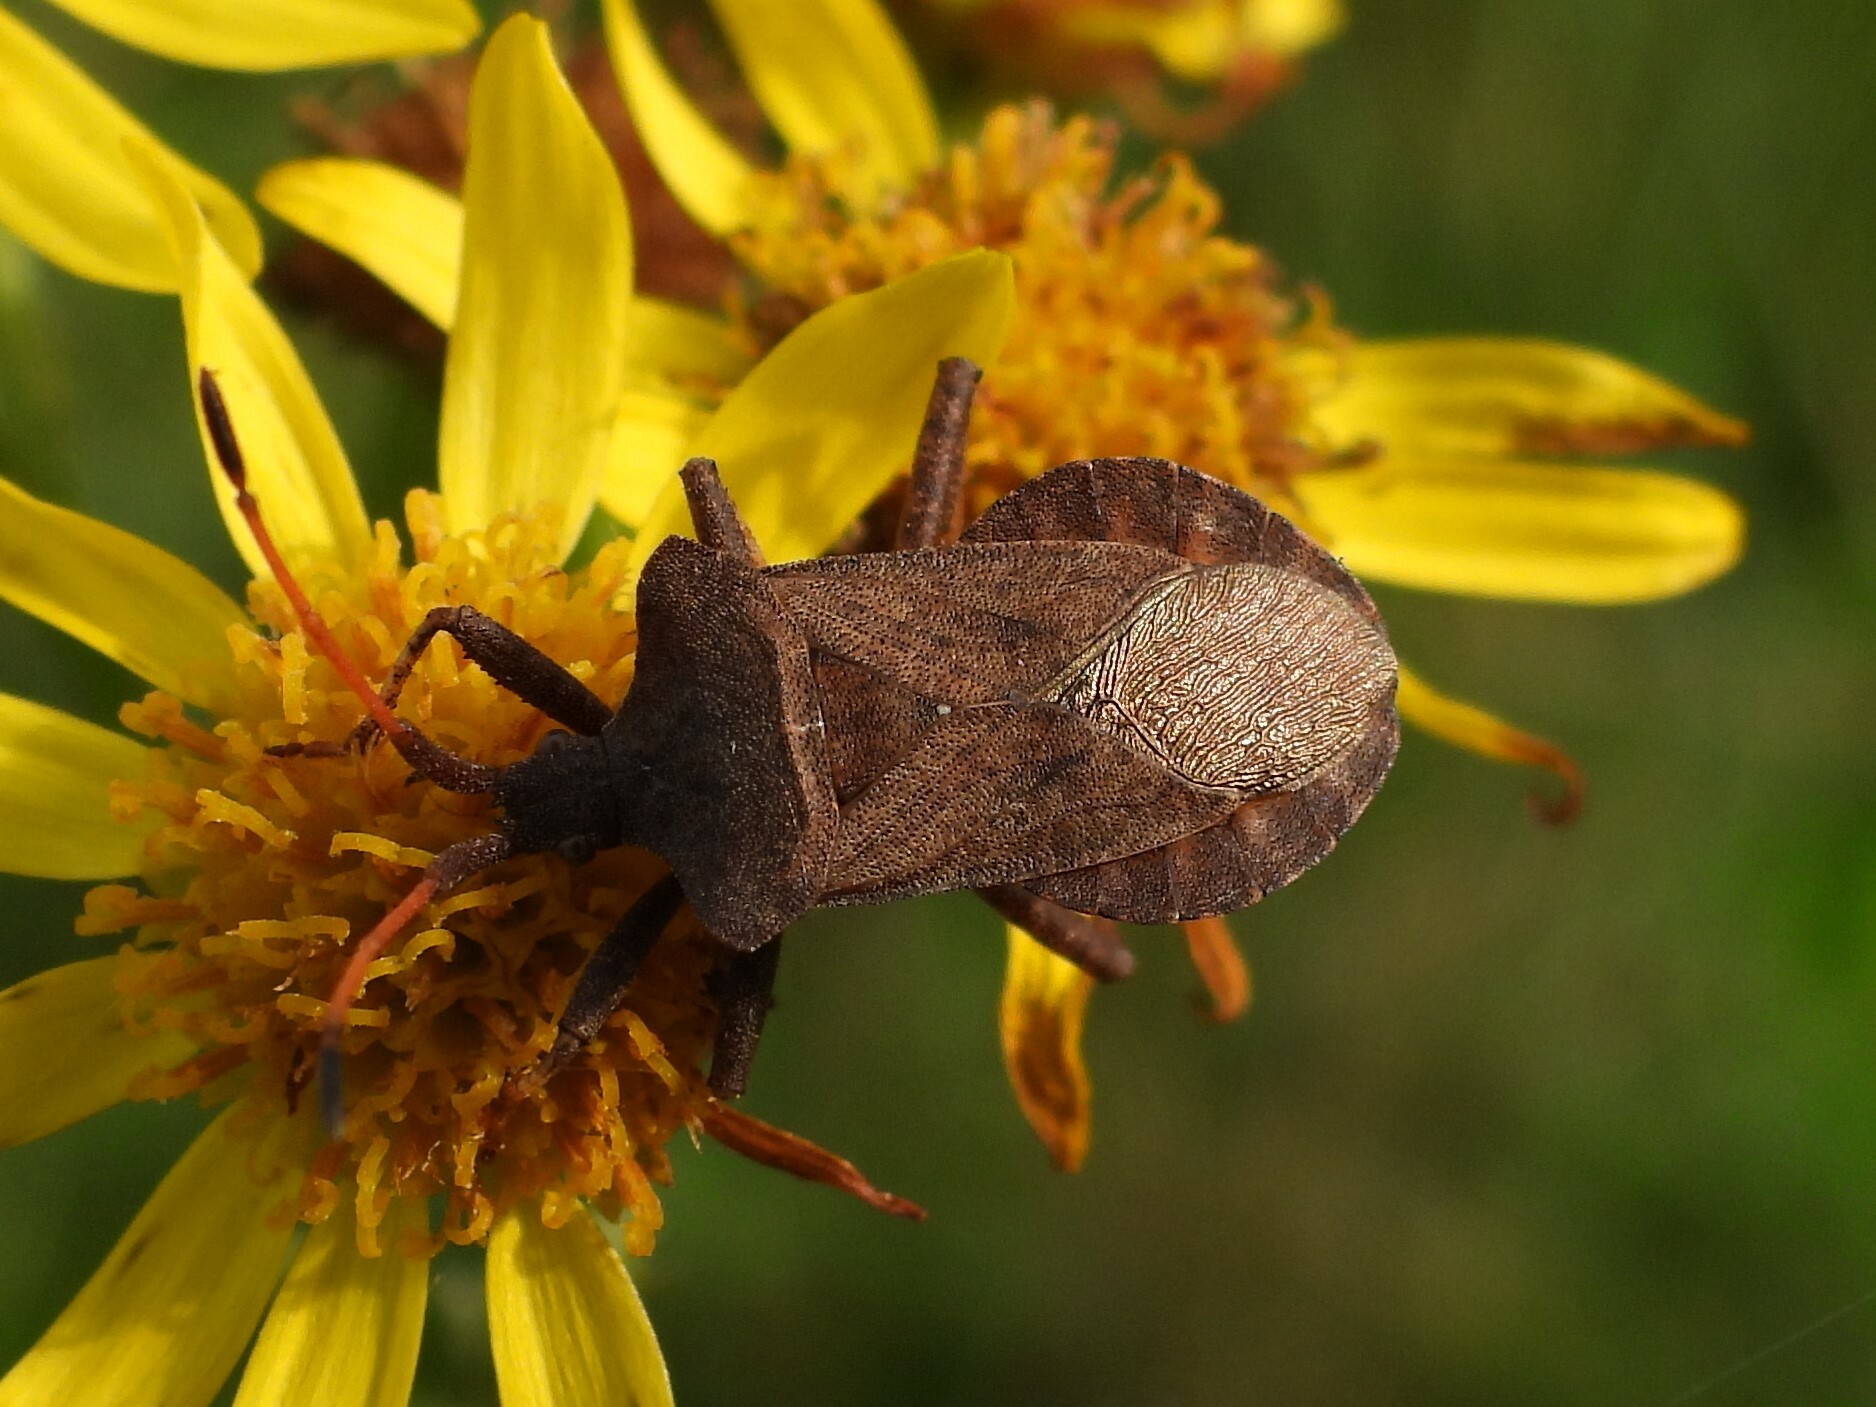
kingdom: Animalia
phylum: Arthropoda
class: Insecta
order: Hemiptera
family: Coreidae
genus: Coreus
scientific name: Coreus marginatus
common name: Dock bug
